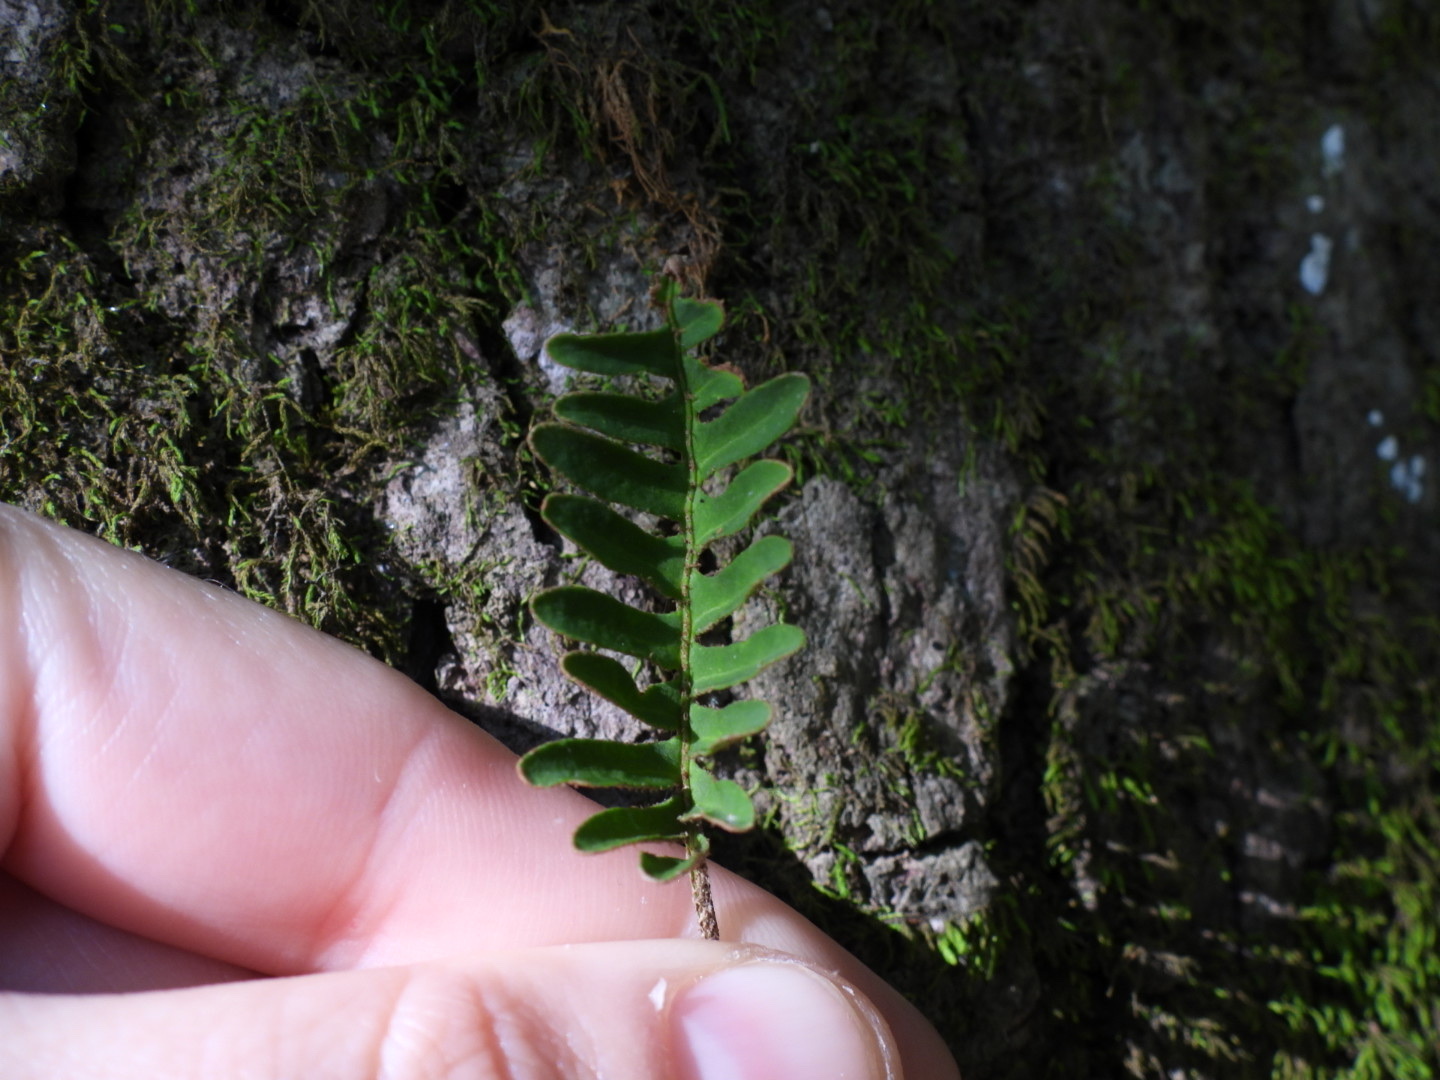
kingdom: Plantae
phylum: Tracheophyta
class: Polypodiopsida
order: Polypodiales
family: Polypodiaceae
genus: Pleopeltis
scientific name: Pleopeltis michauxiana
